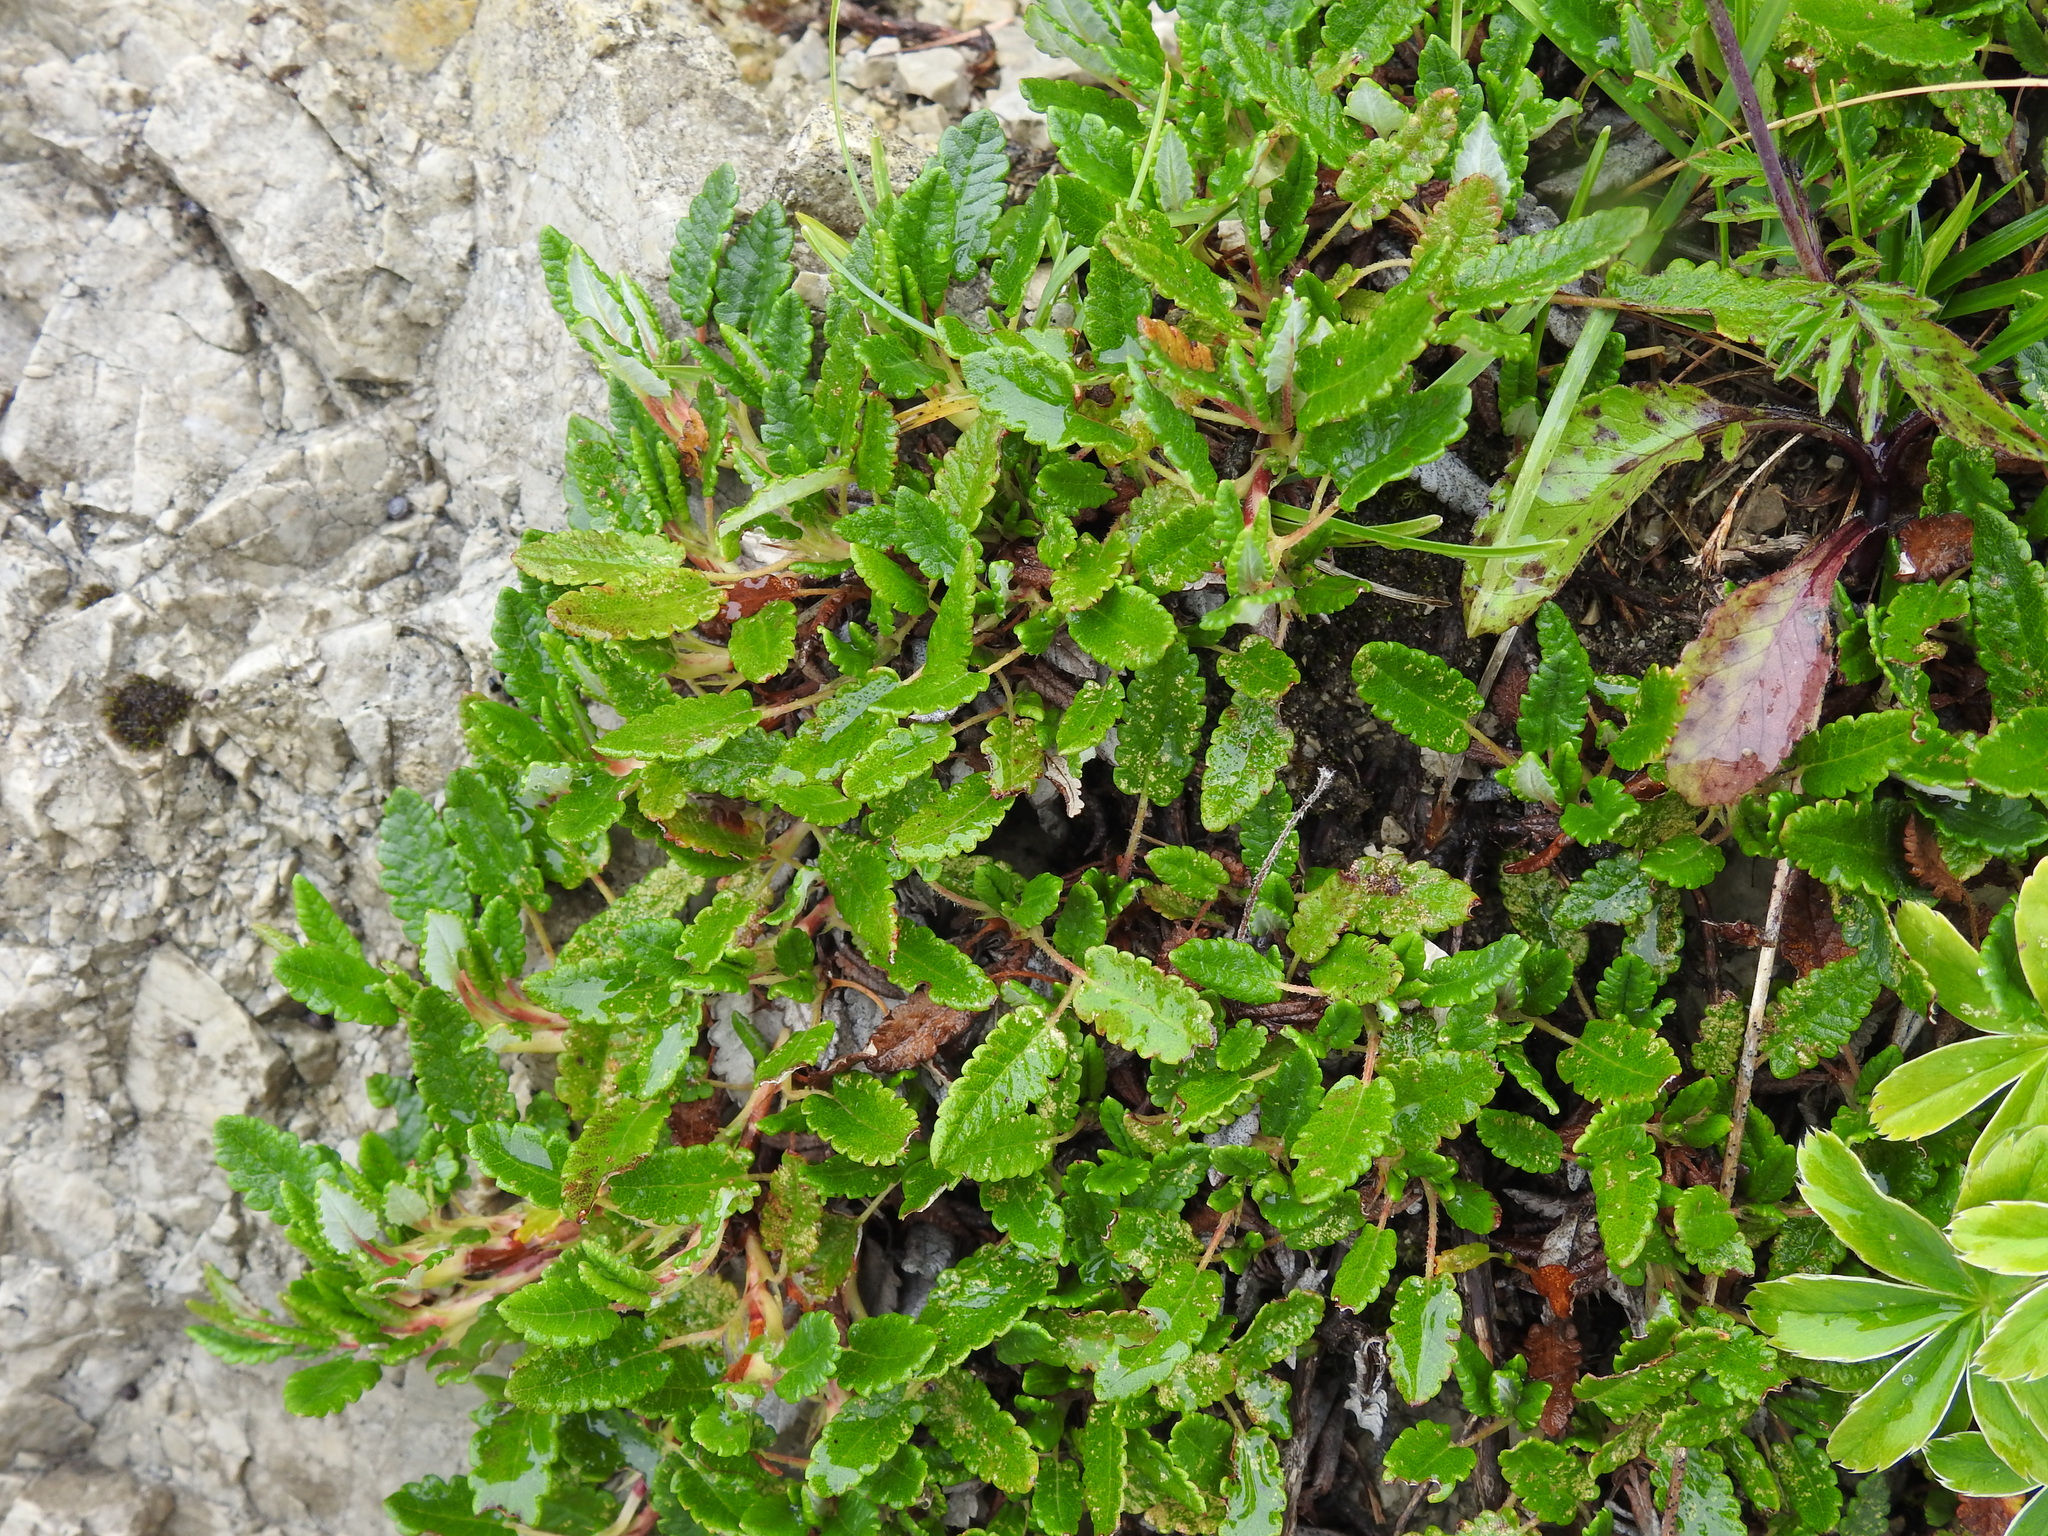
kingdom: Plantae
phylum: Tracheophyta
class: Magnoliopsida
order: Rosales
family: Rosaceae
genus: Dryas
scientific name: Dryas octopetala
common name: Eight-petal mountain-avens
